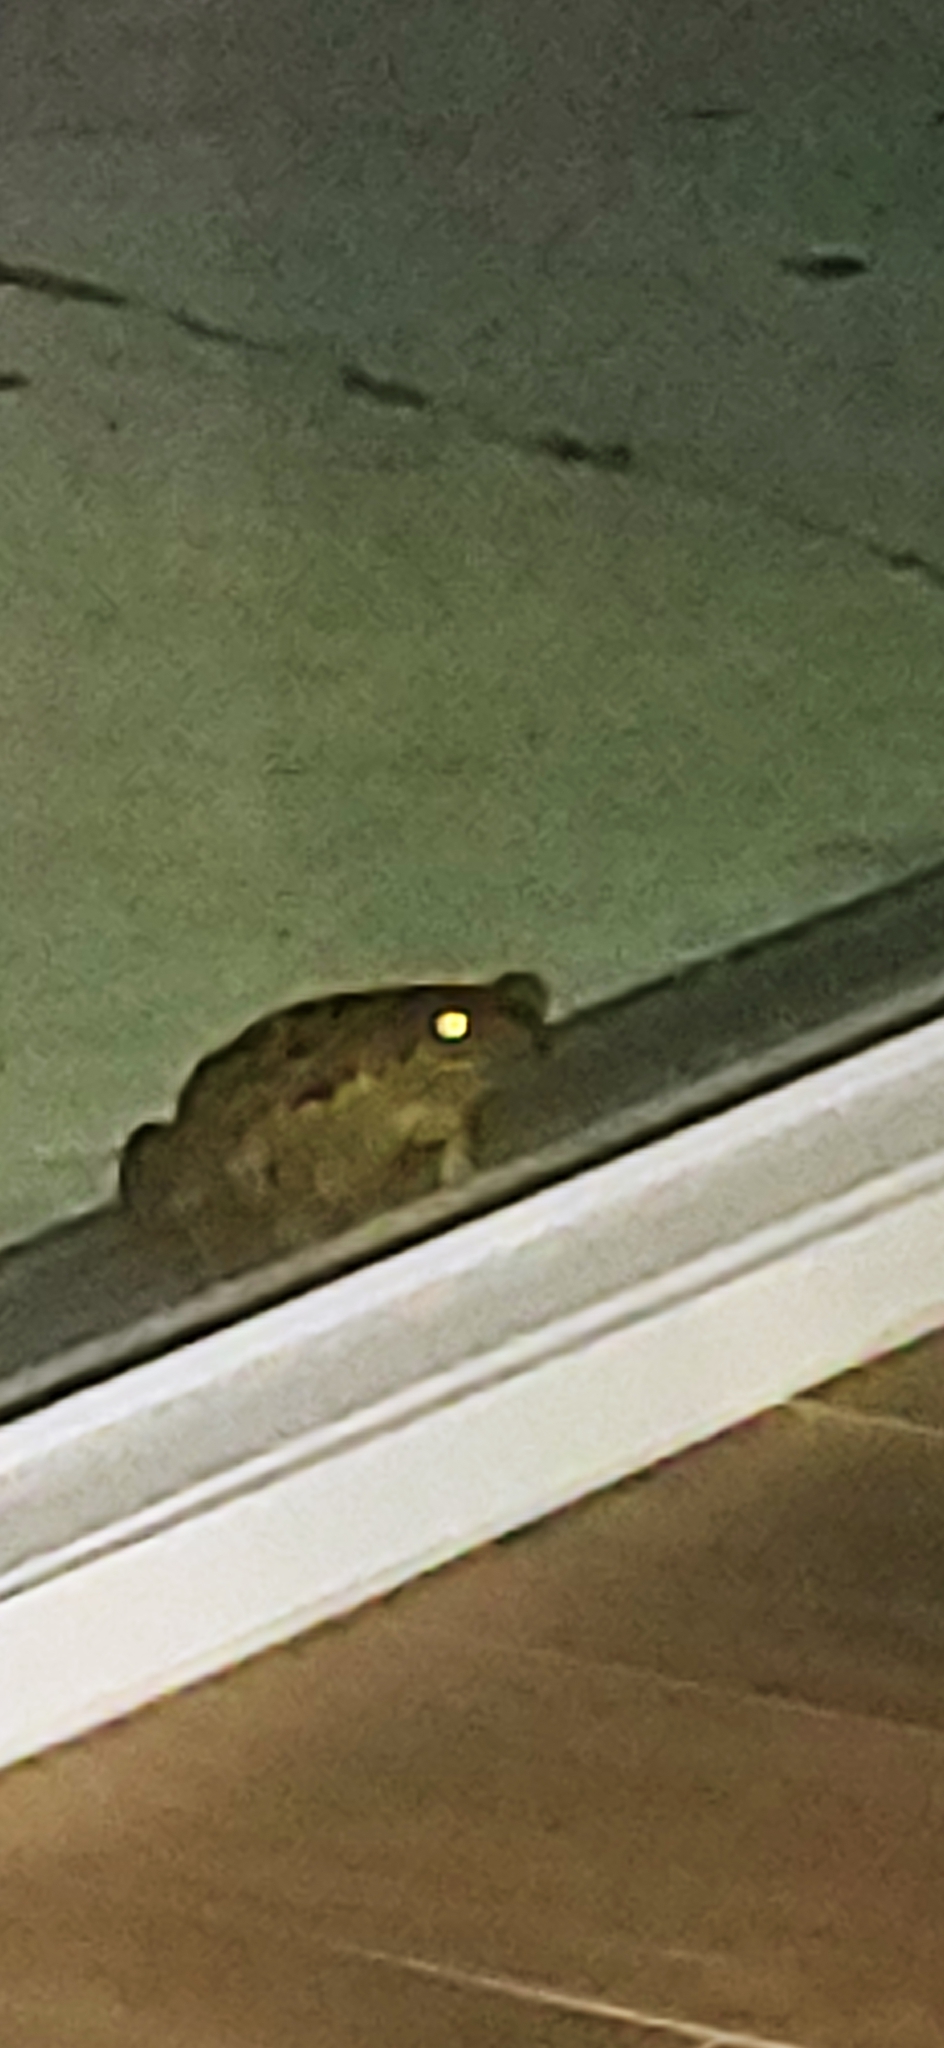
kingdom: Animalia
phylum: Chordata
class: Amphibia
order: Anura
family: Bufonidae
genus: Rhinella
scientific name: Rhinella marina
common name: Cane toad
